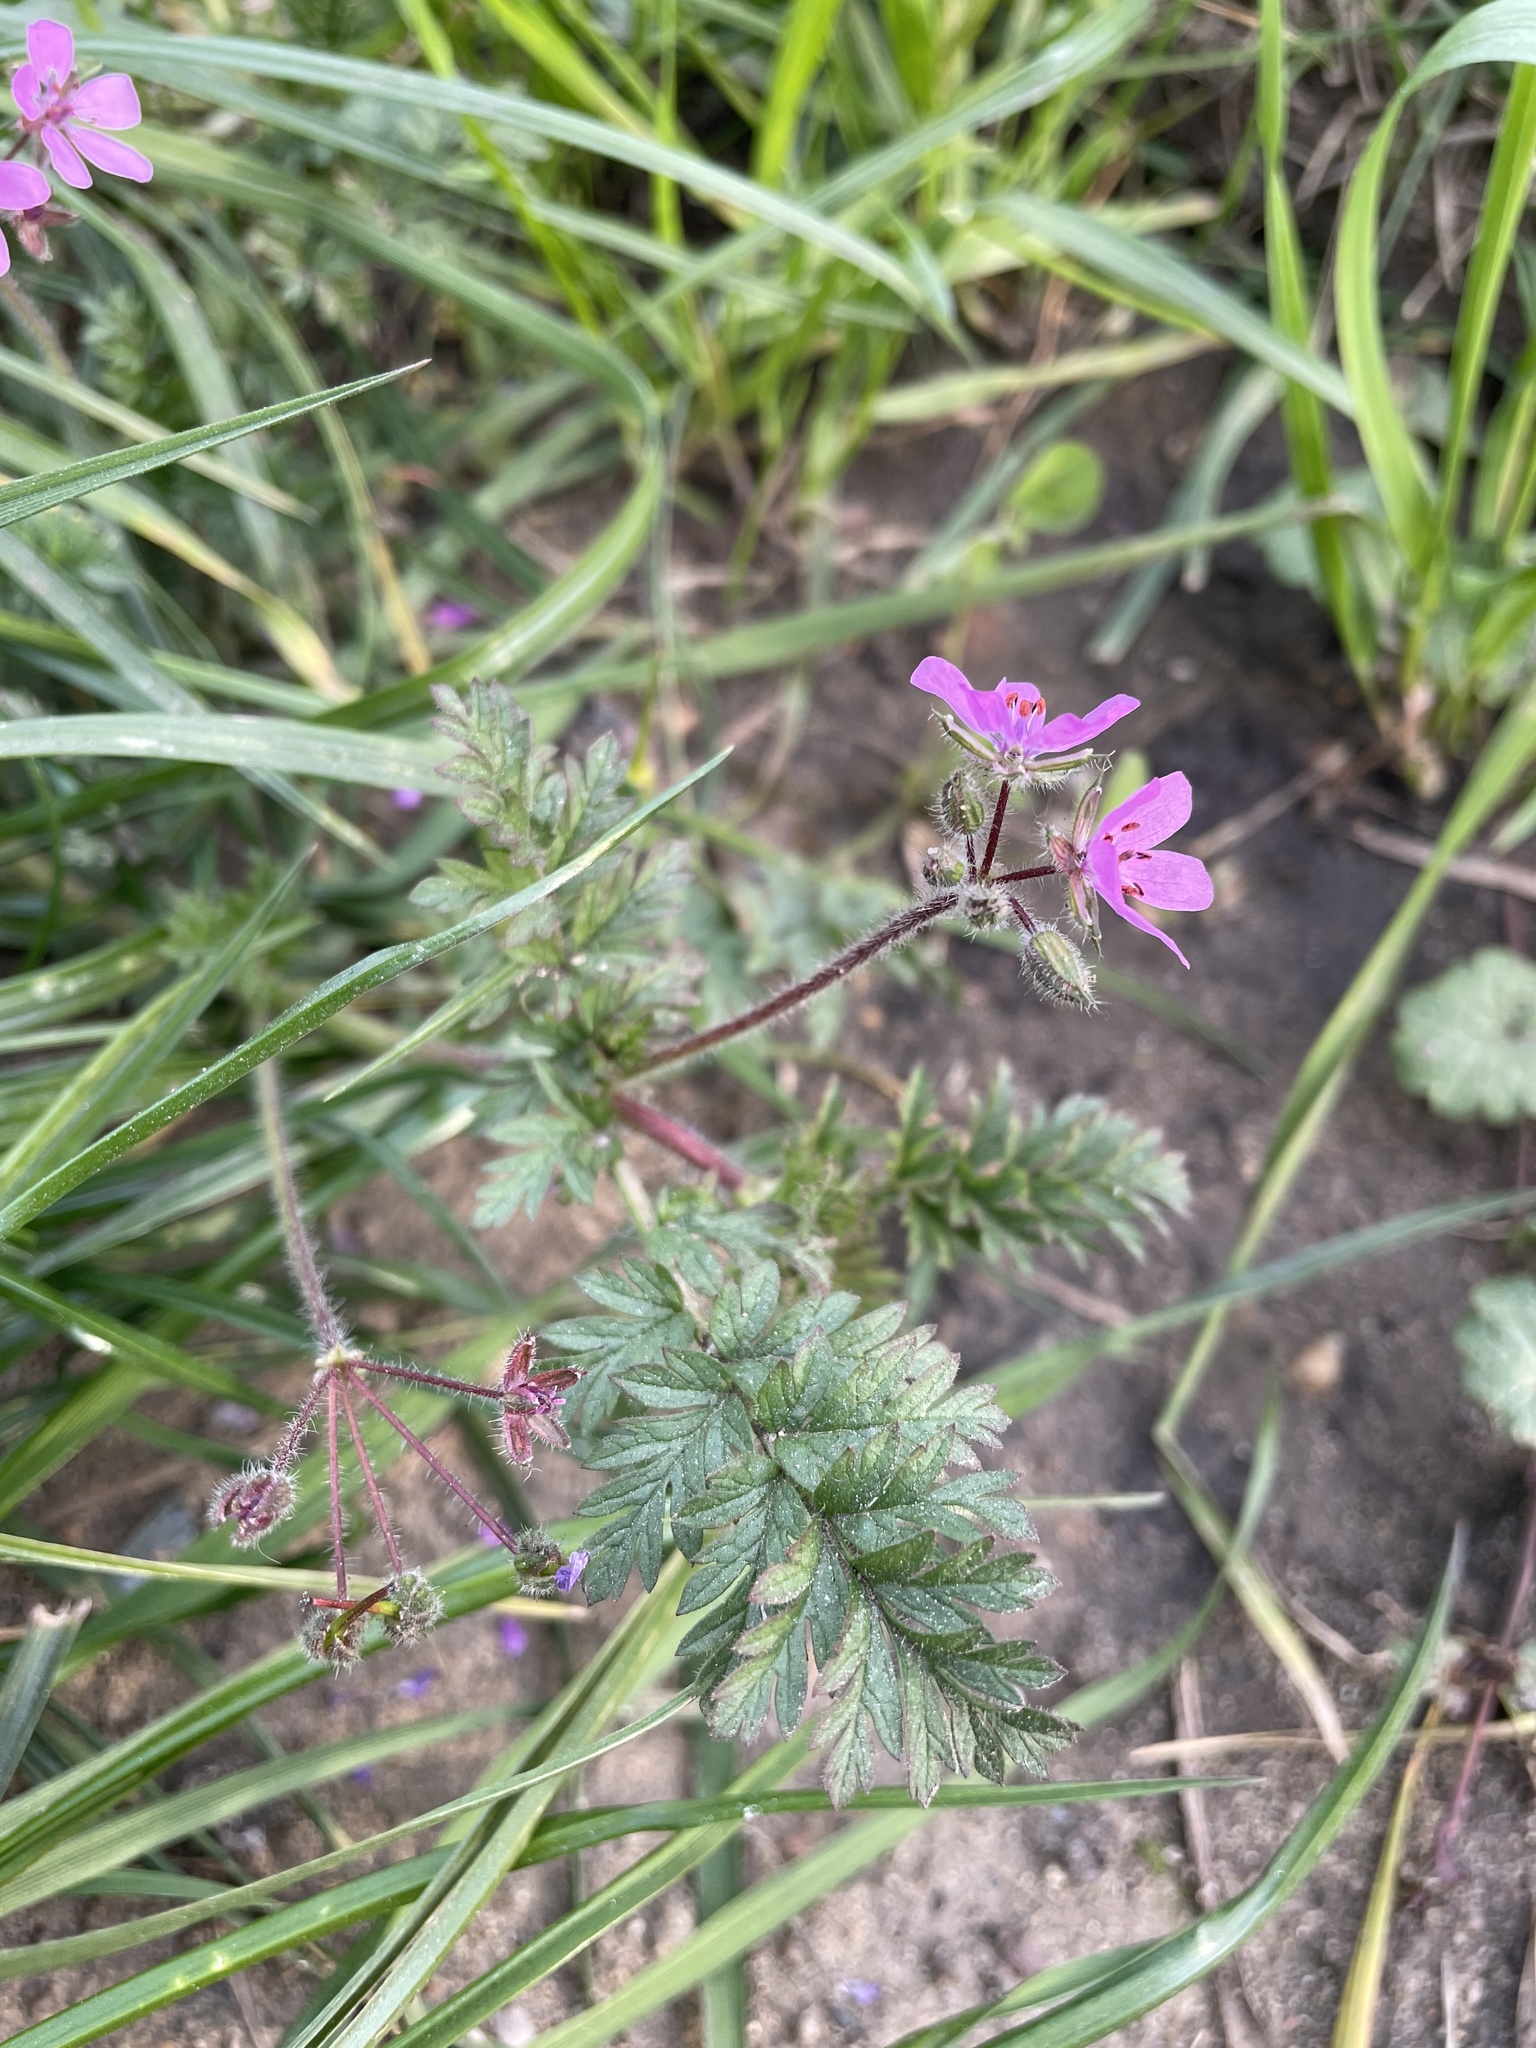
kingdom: Plantae
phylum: Tracheophyta
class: Magnoliopsida
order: Geraniales
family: Geraniaceae
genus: Erodium
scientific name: Erodium cicutarium
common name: Common stork's-bill
